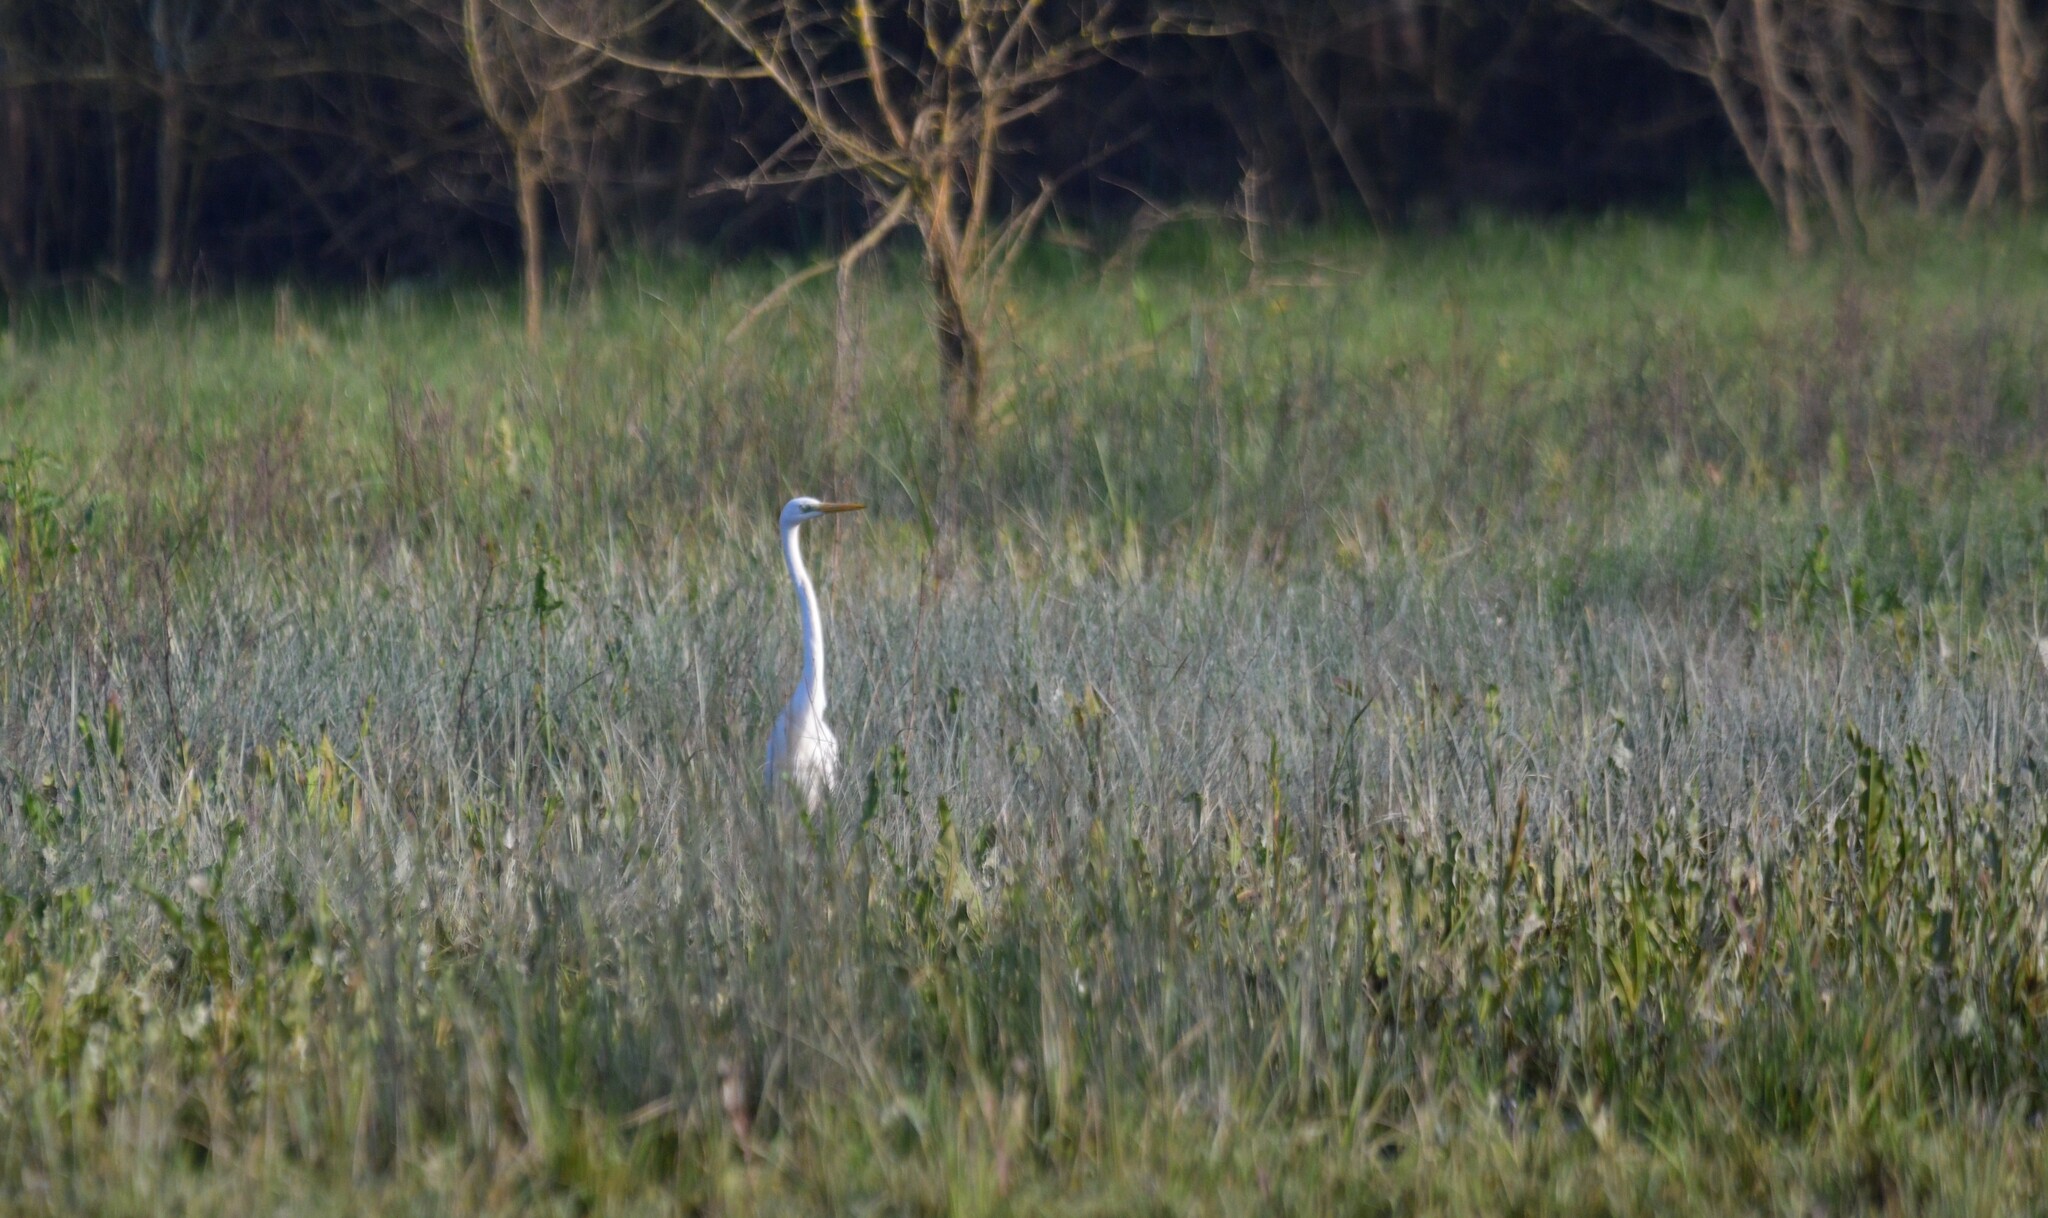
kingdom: Animalia
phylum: Chordata
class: Aves
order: Pelecaniformes
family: Ardeidae
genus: Ardea
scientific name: Ardea alba
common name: Great egret
